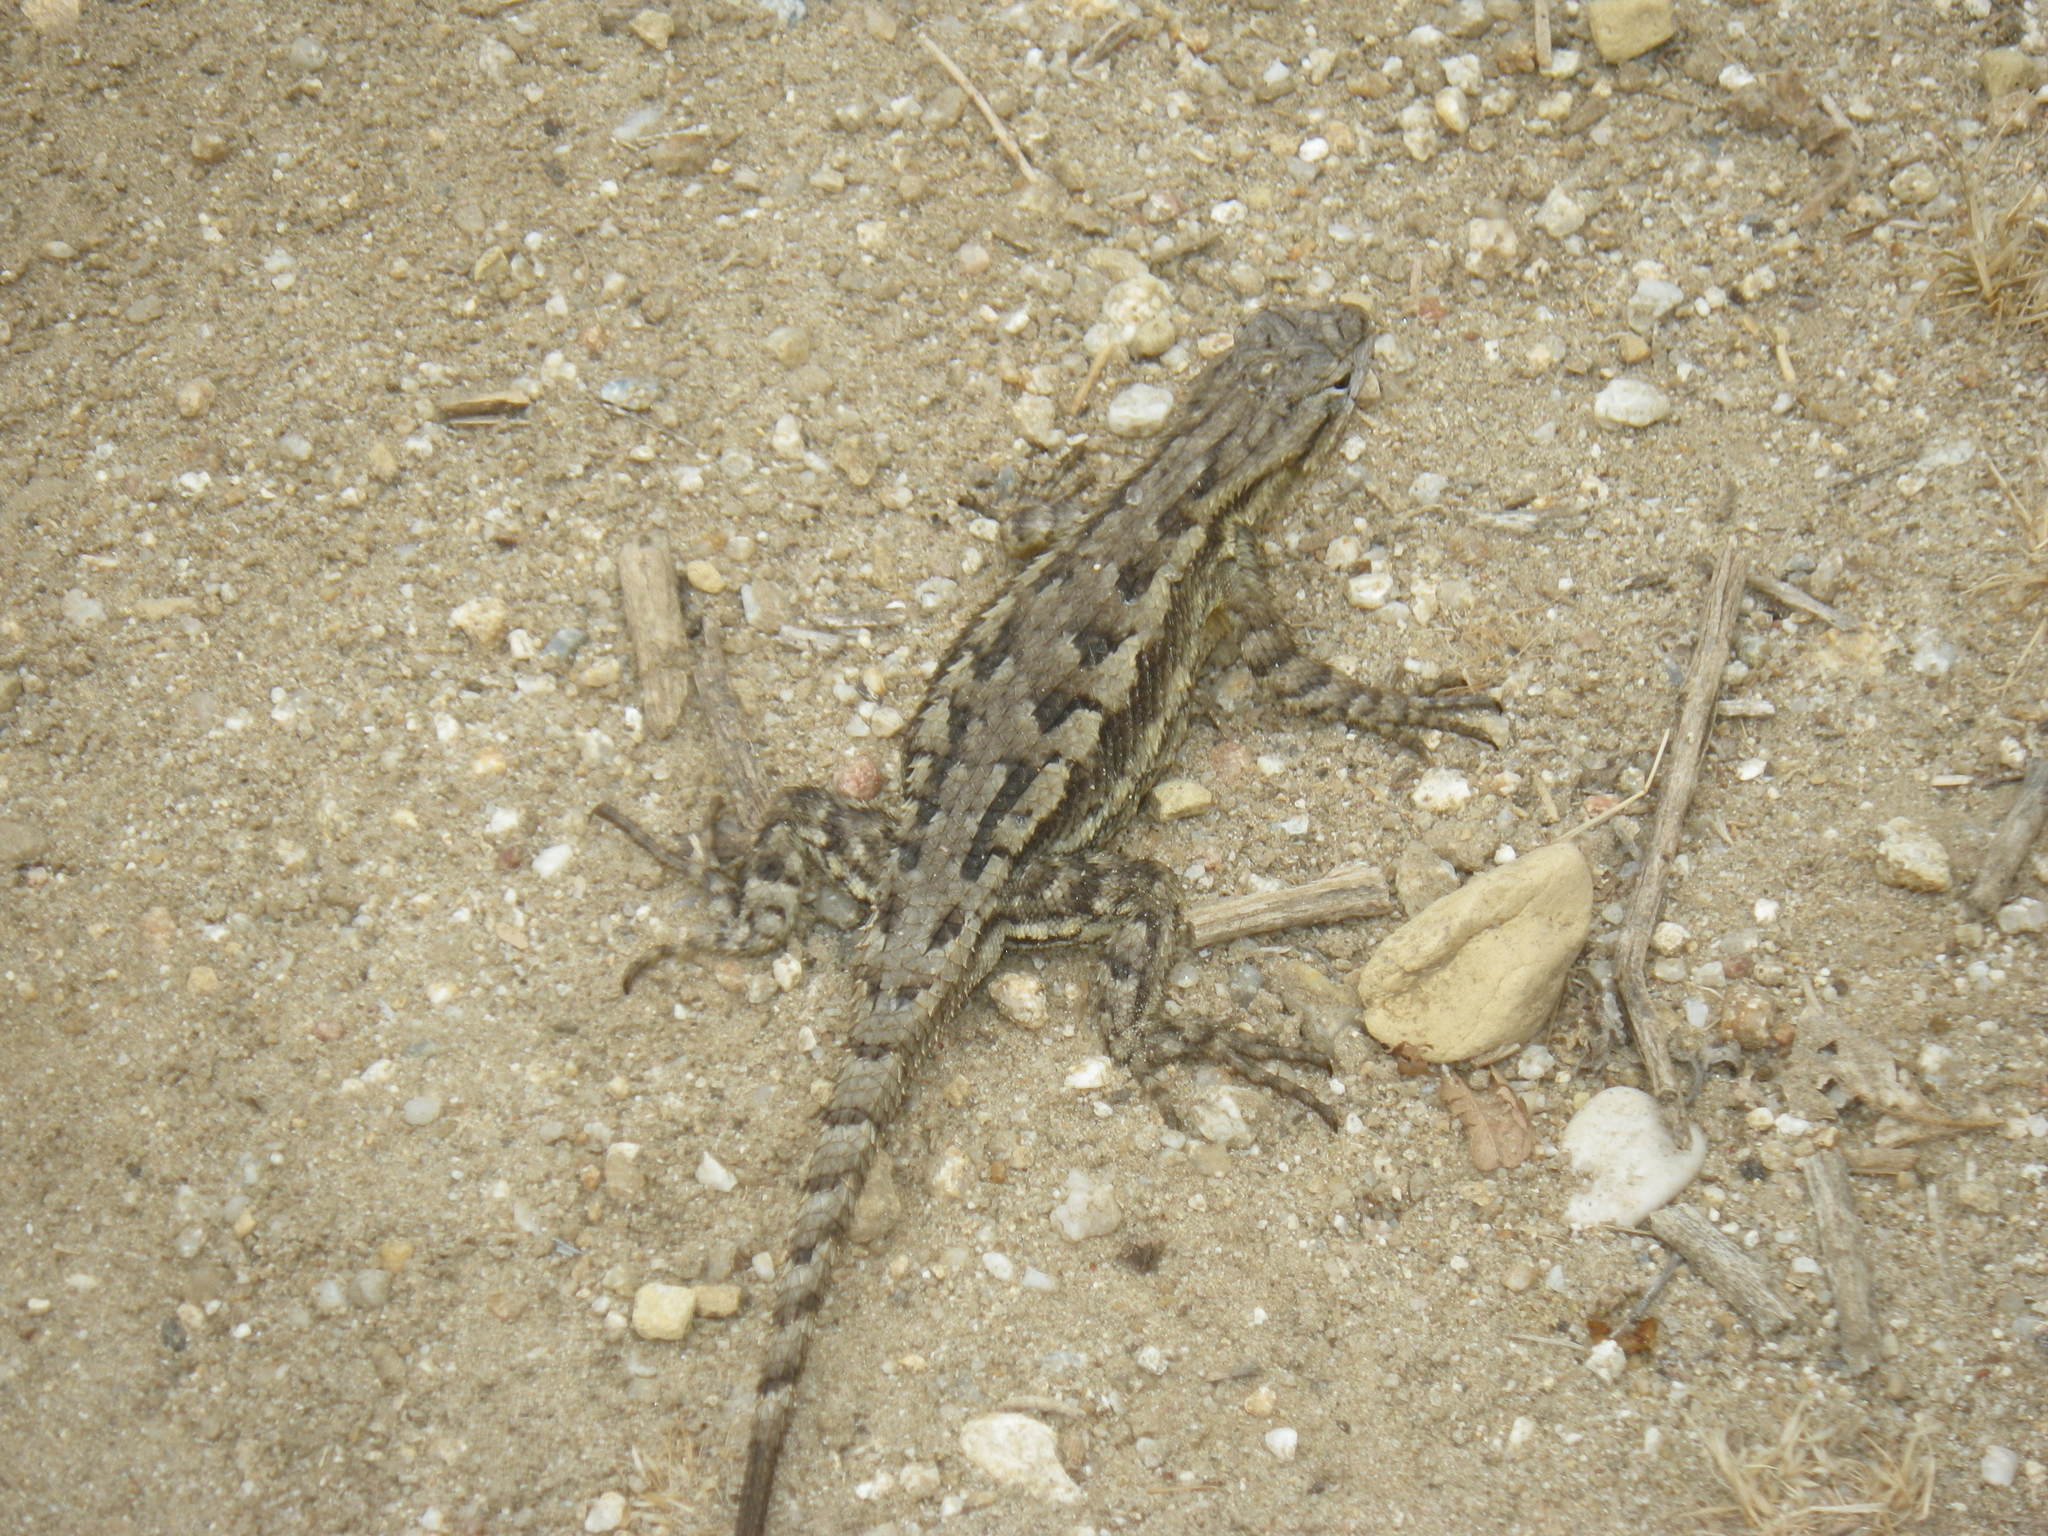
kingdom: Animalia
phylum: Chordata
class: Squamata
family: Phrynosomatidae
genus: Sceloporus
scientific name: Sceloporus occidentalis
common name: Western fence lizard
